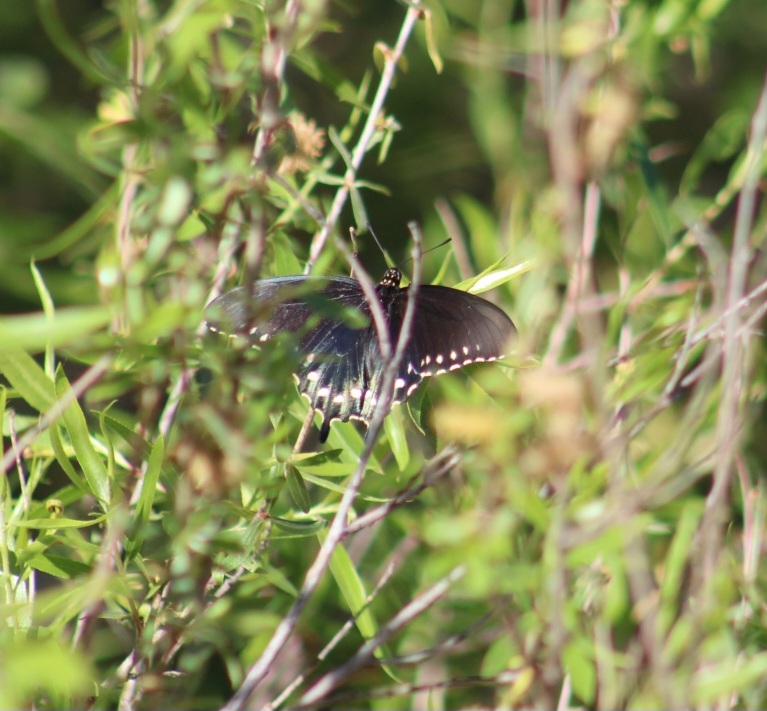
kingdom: Animalia
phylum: Arthropoda
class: Insecta
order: Lepidoptera
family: Papilionidae
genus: Battus
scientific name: Battus philenor
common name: Pipevine swallowtail
